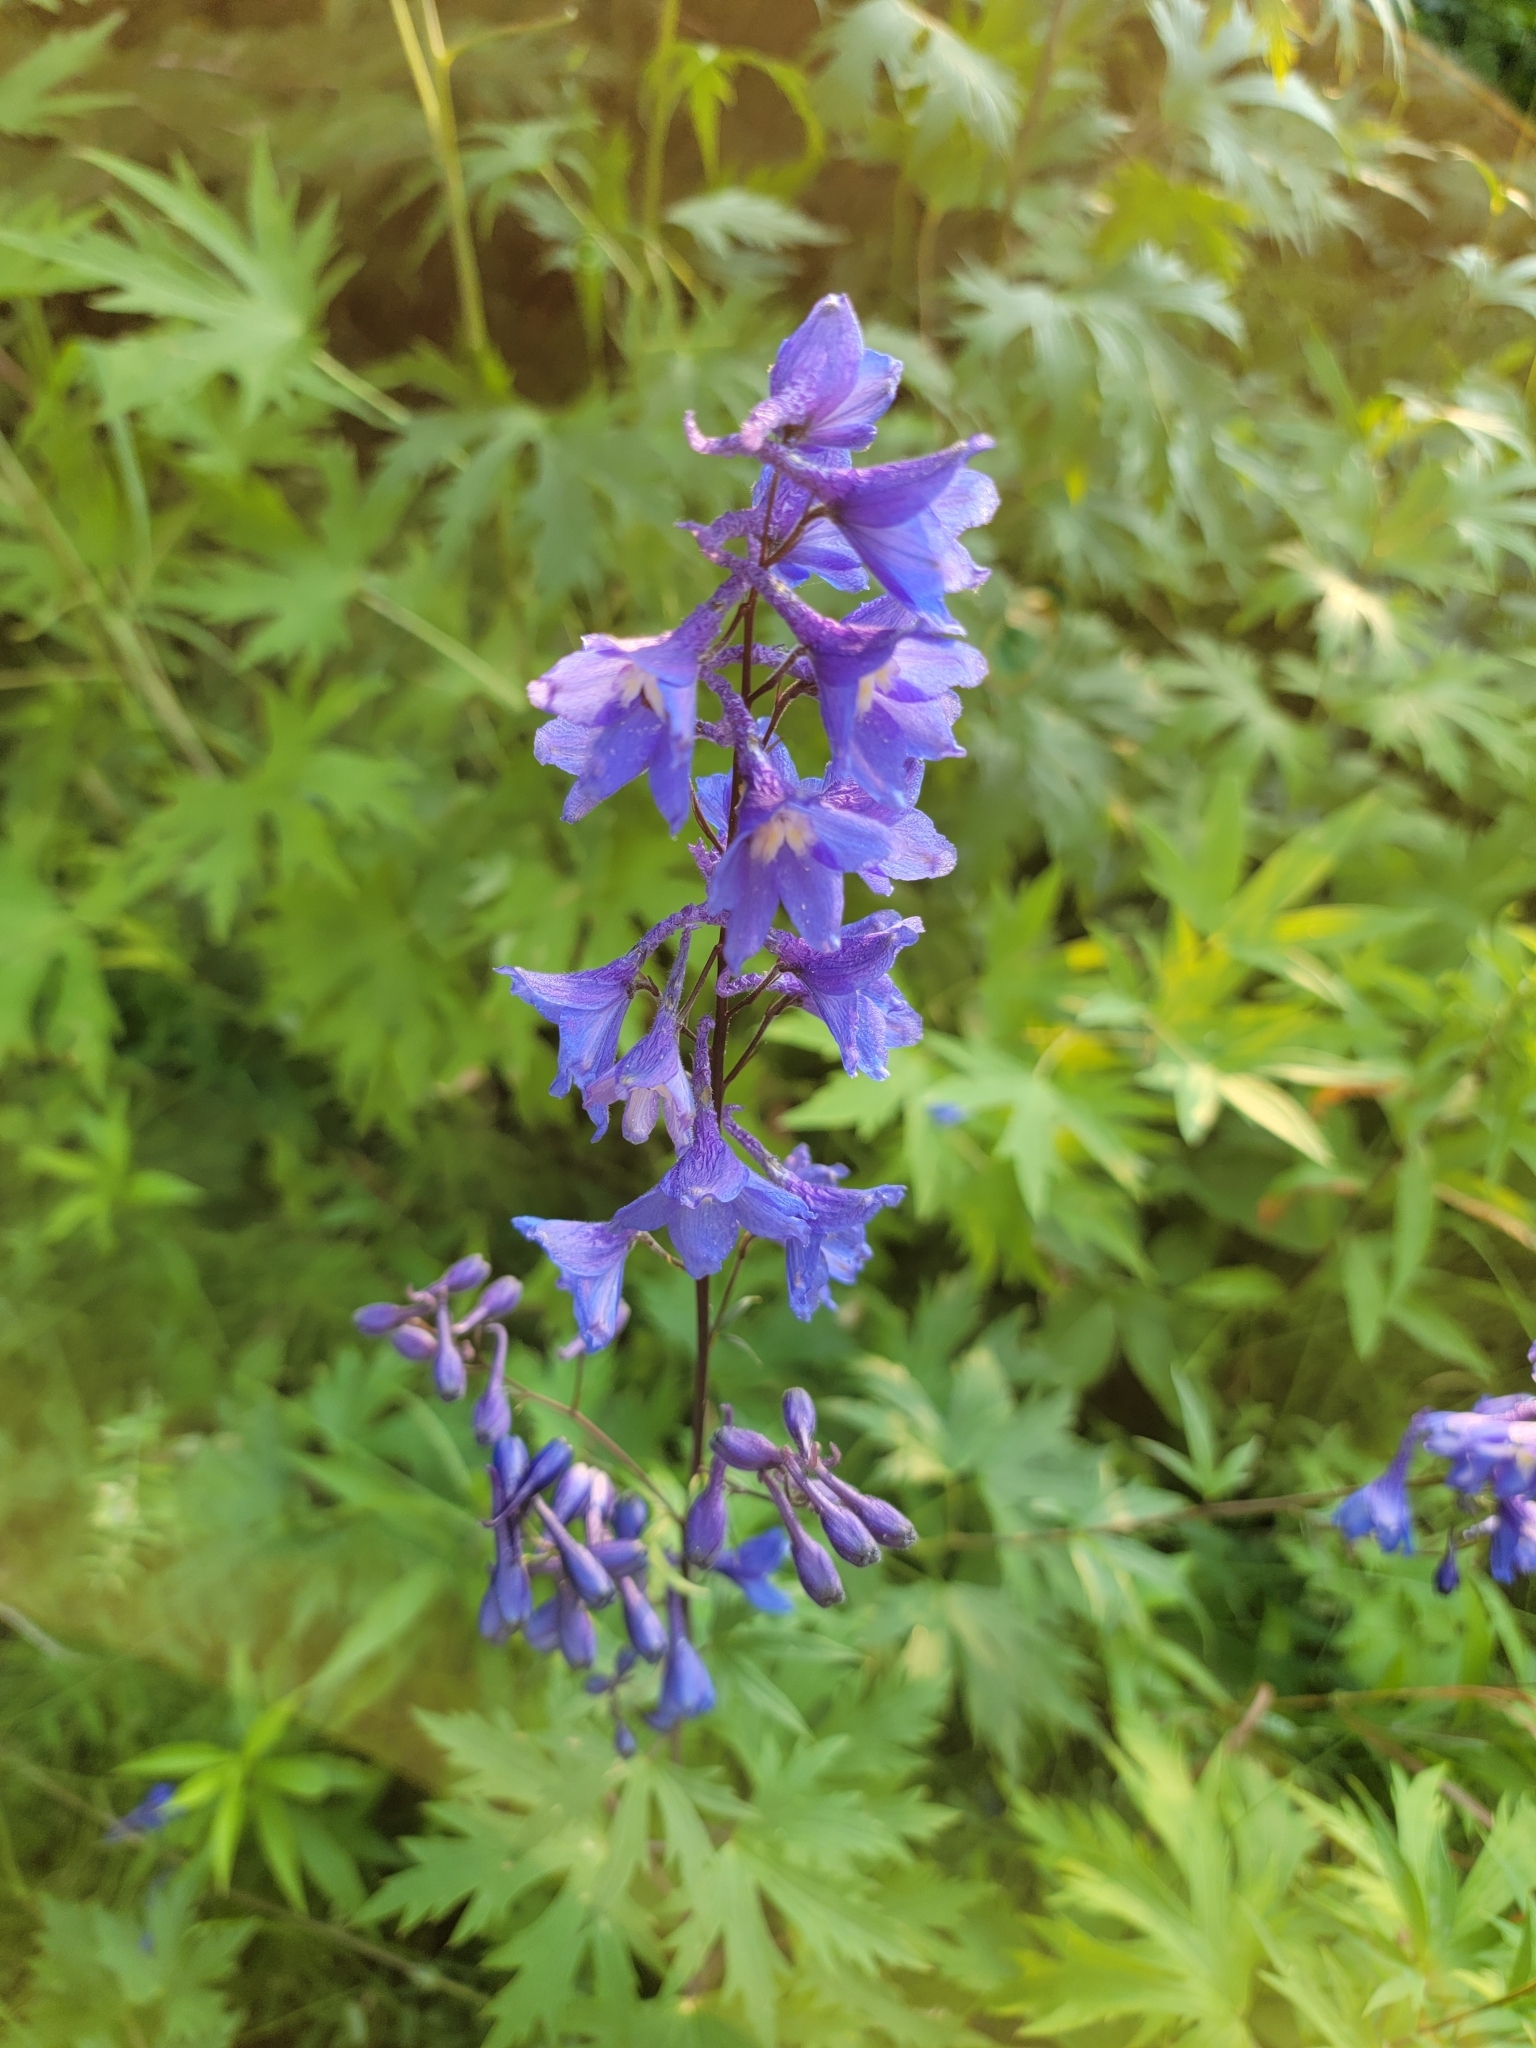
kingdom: Plantae
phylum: Tracheophyta
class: Magnoliopsida
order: Ranunculales
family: Ranunculaceae
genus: Delphinium
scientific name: Delphinium cultorum
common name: Garden delphinium
